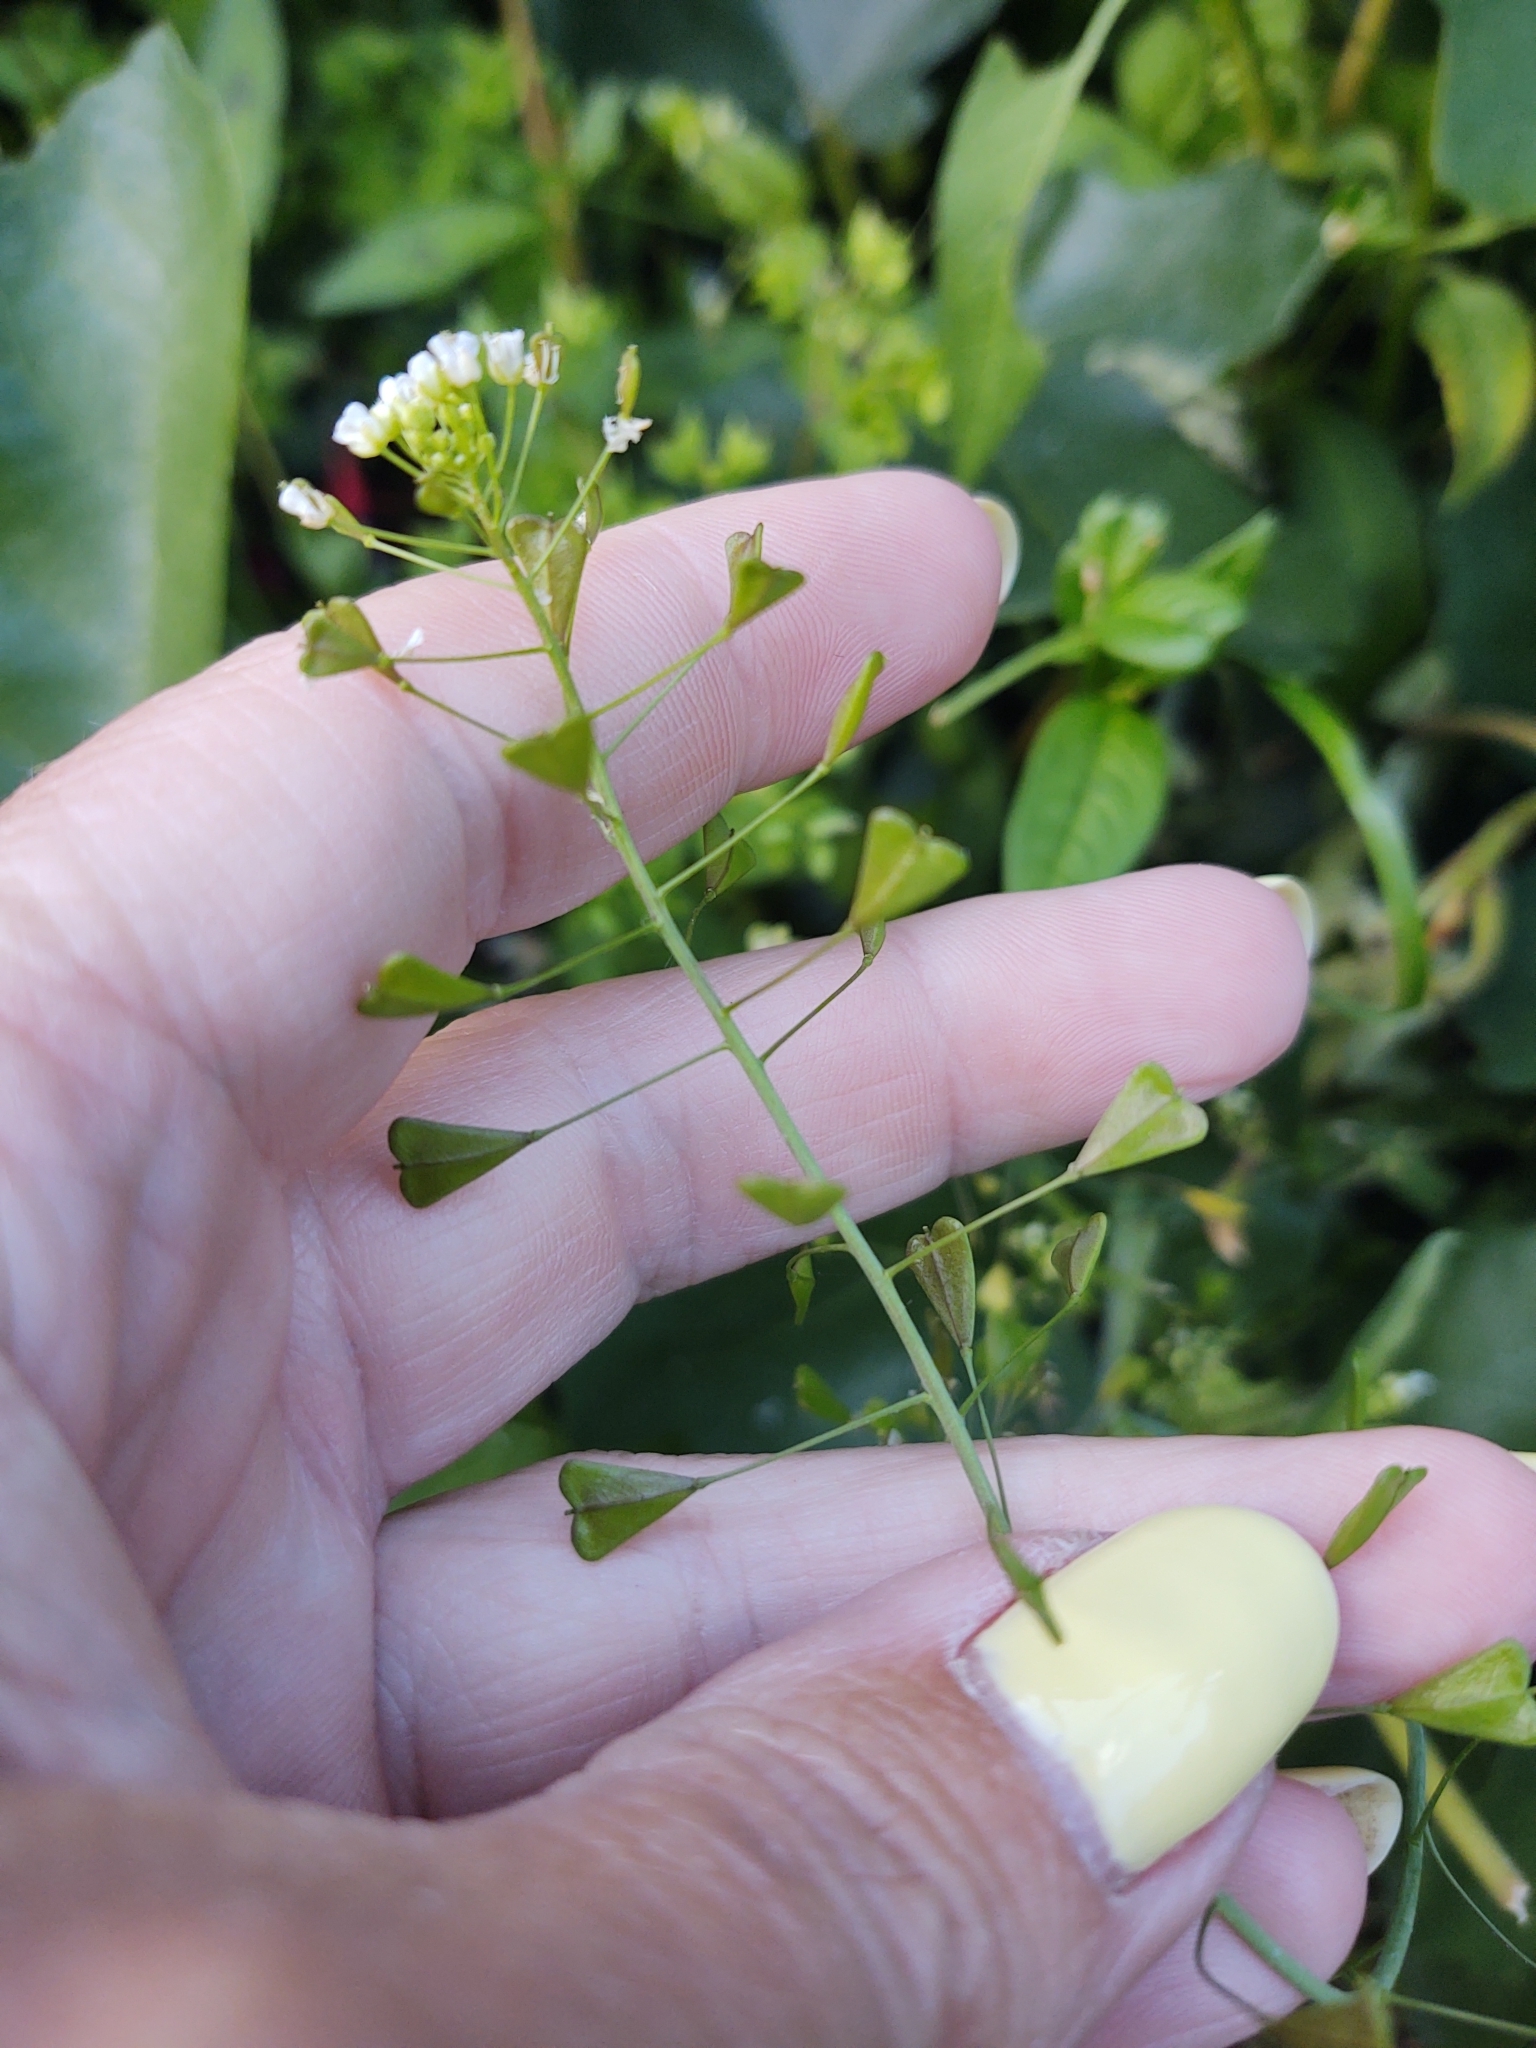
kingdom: Plantae
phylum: Tracheophyta
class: Magnoliopsida
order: Brassicales
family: Brassicaceae
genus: Capsella
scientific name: Capsella bursa-pastoris
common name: Shepherd's purse
